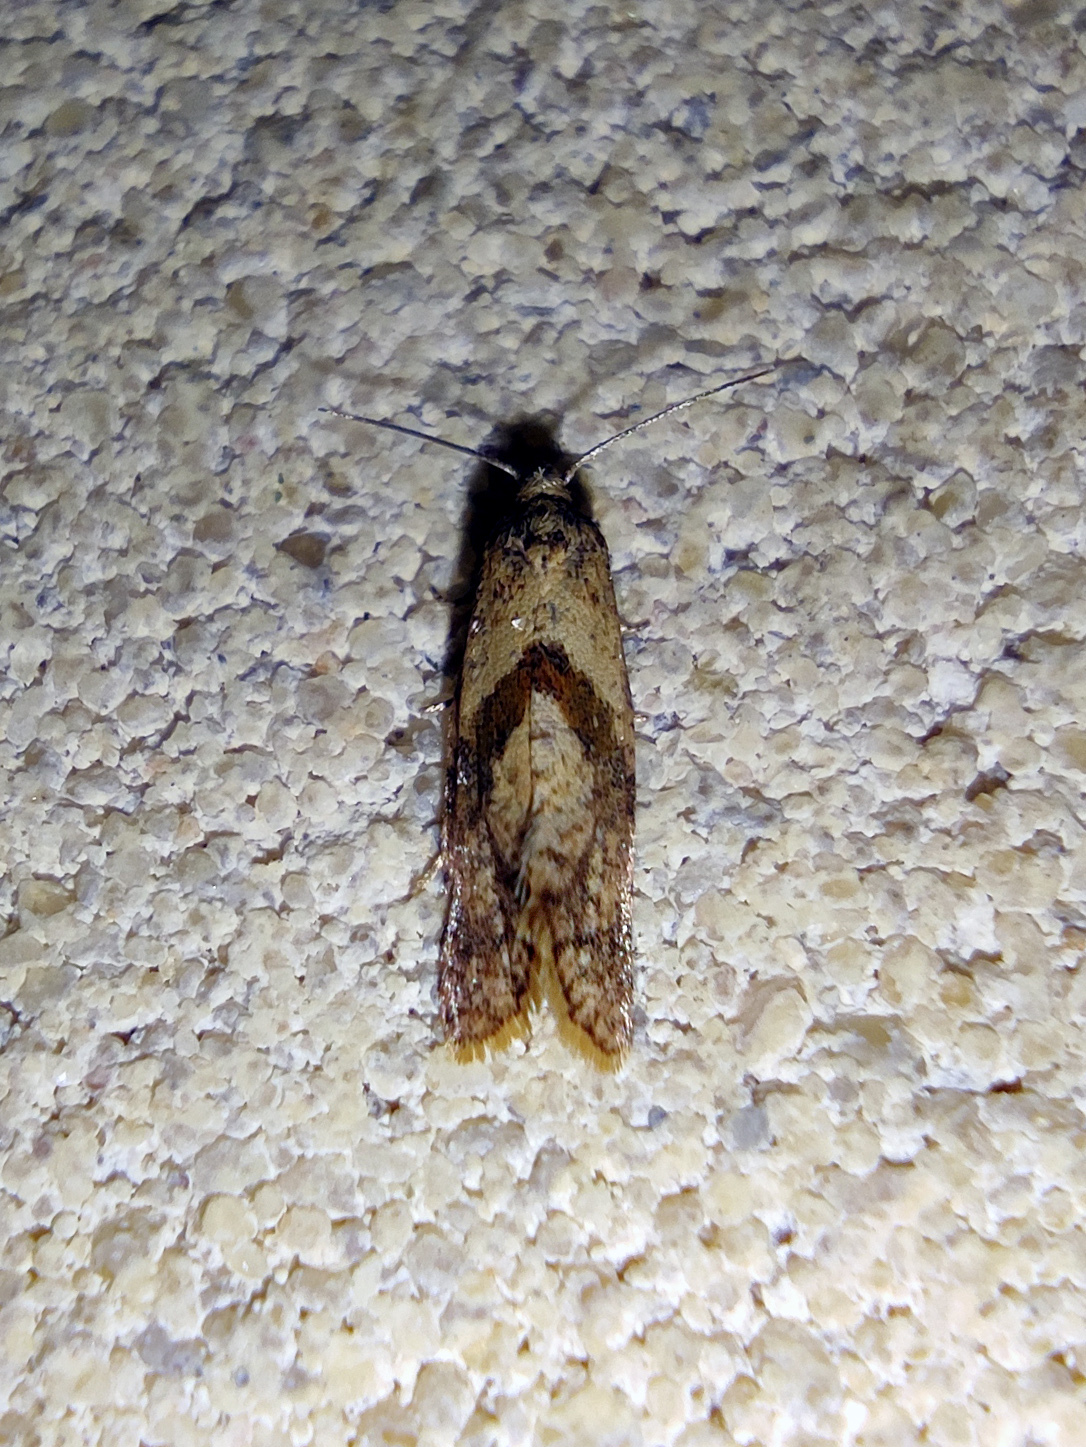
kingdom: Animalia
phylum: Arthropoda
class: Insecta
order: Lepidoptera
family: Tortricidae
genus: Cochylidia
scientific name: Cochylidia implicitana
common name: Chamomile conch
